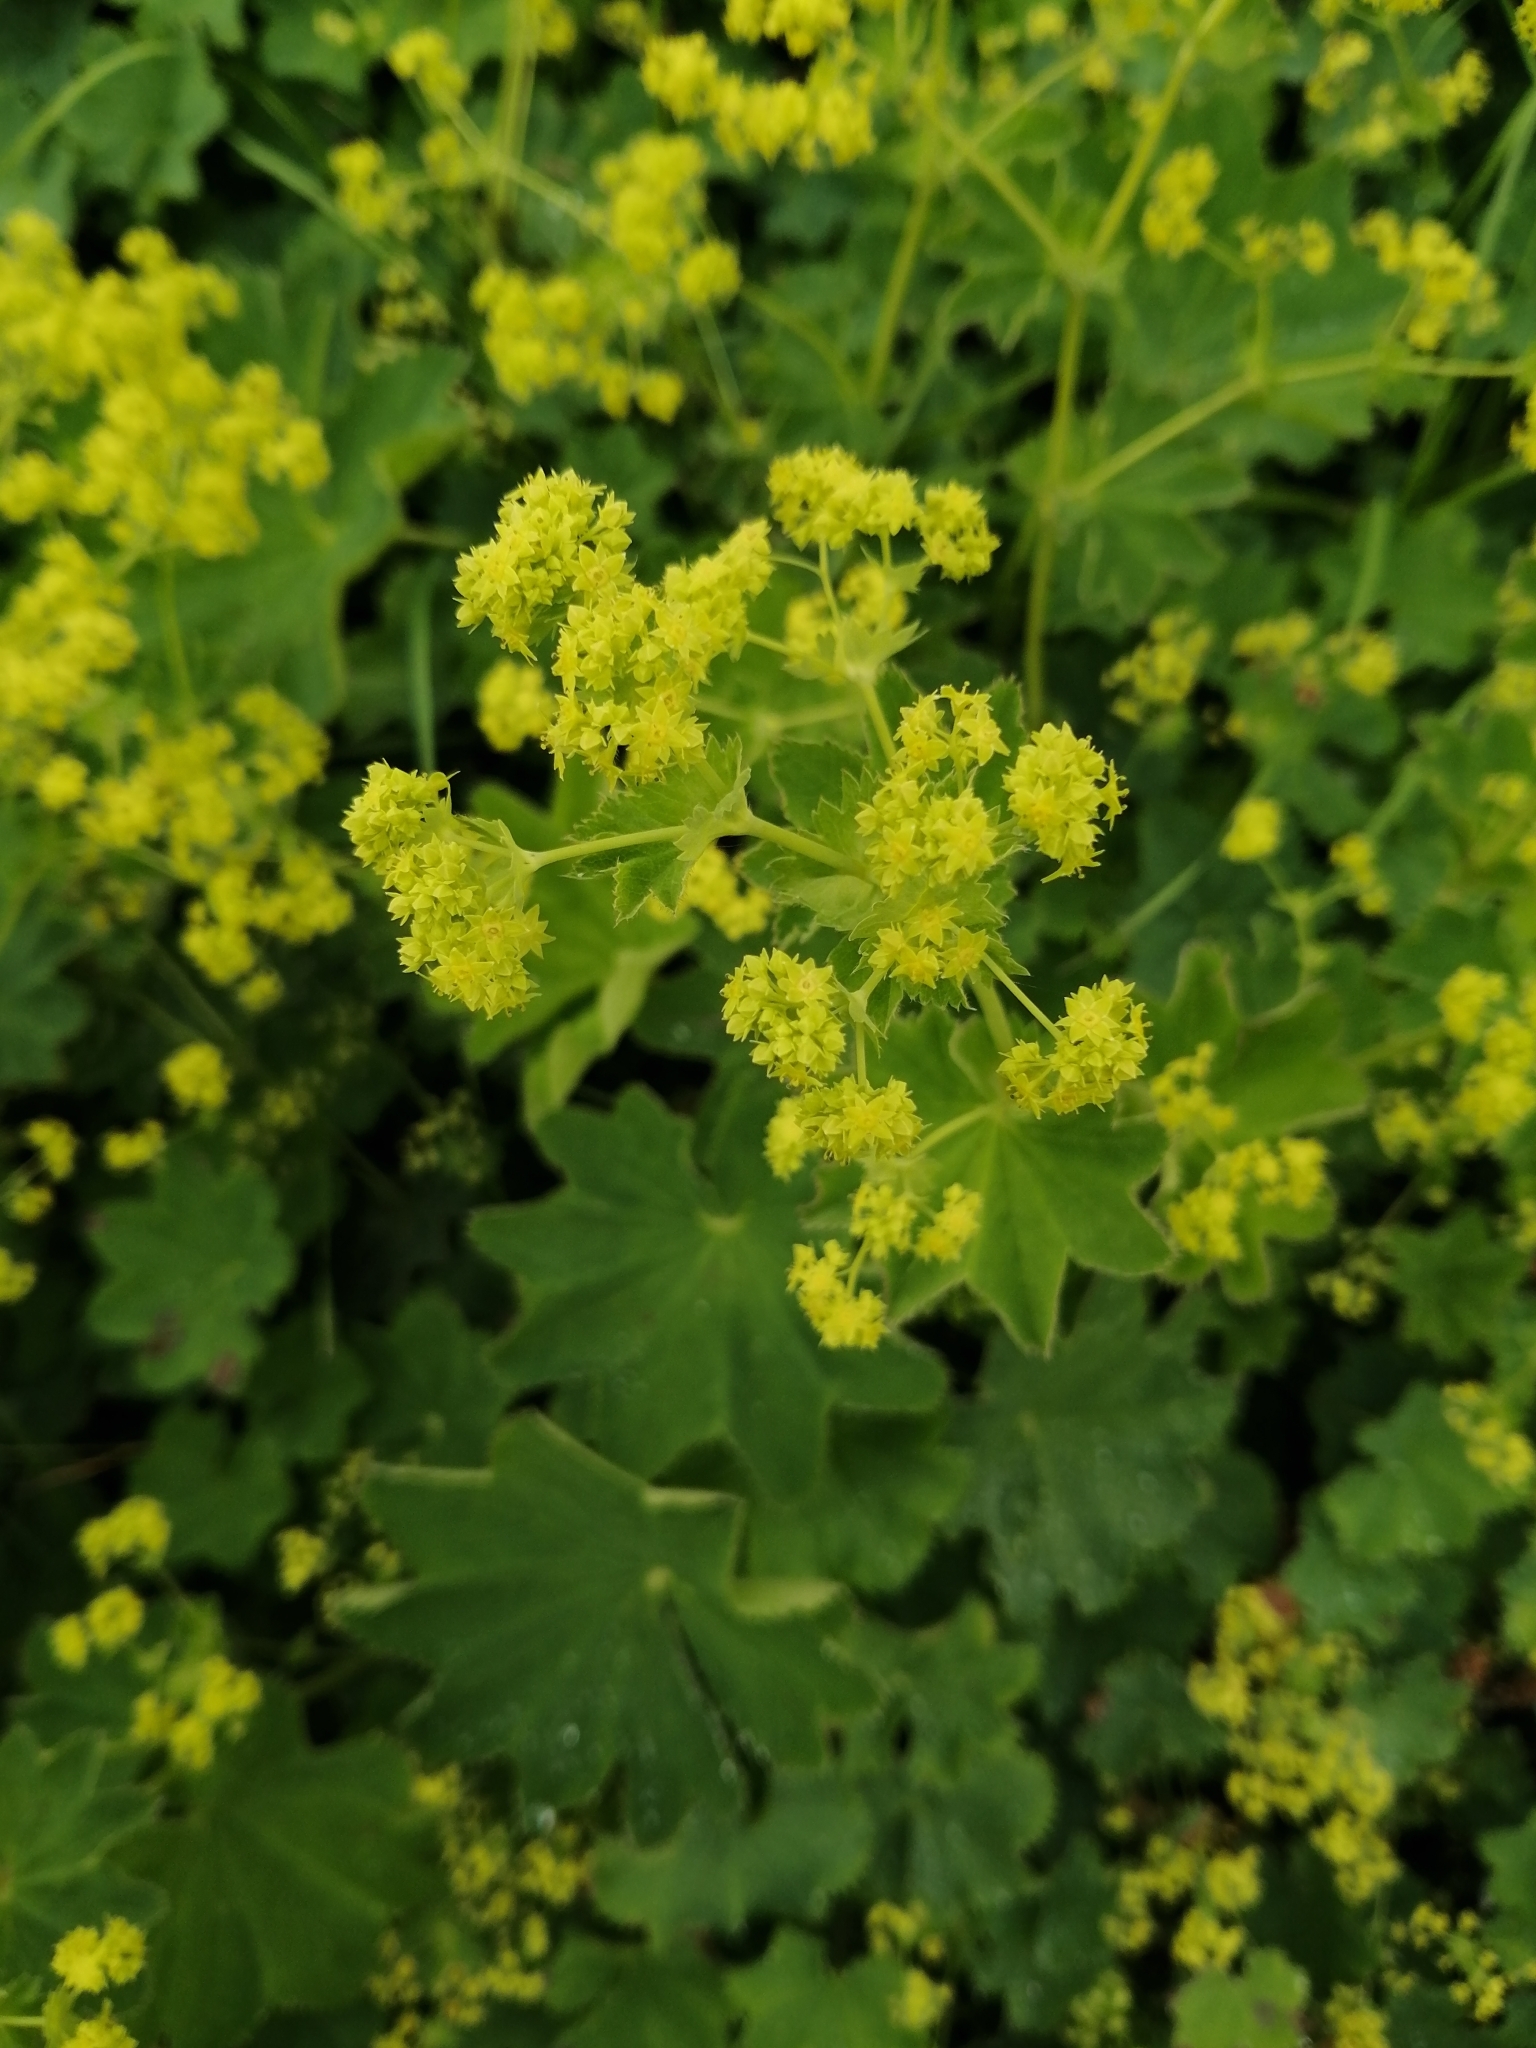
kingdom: Plantae
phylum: Tracheophyta
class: Magnoliopsida
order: Rosales
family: Rosaceae
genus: Alchemilla
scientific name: Alchemilla
